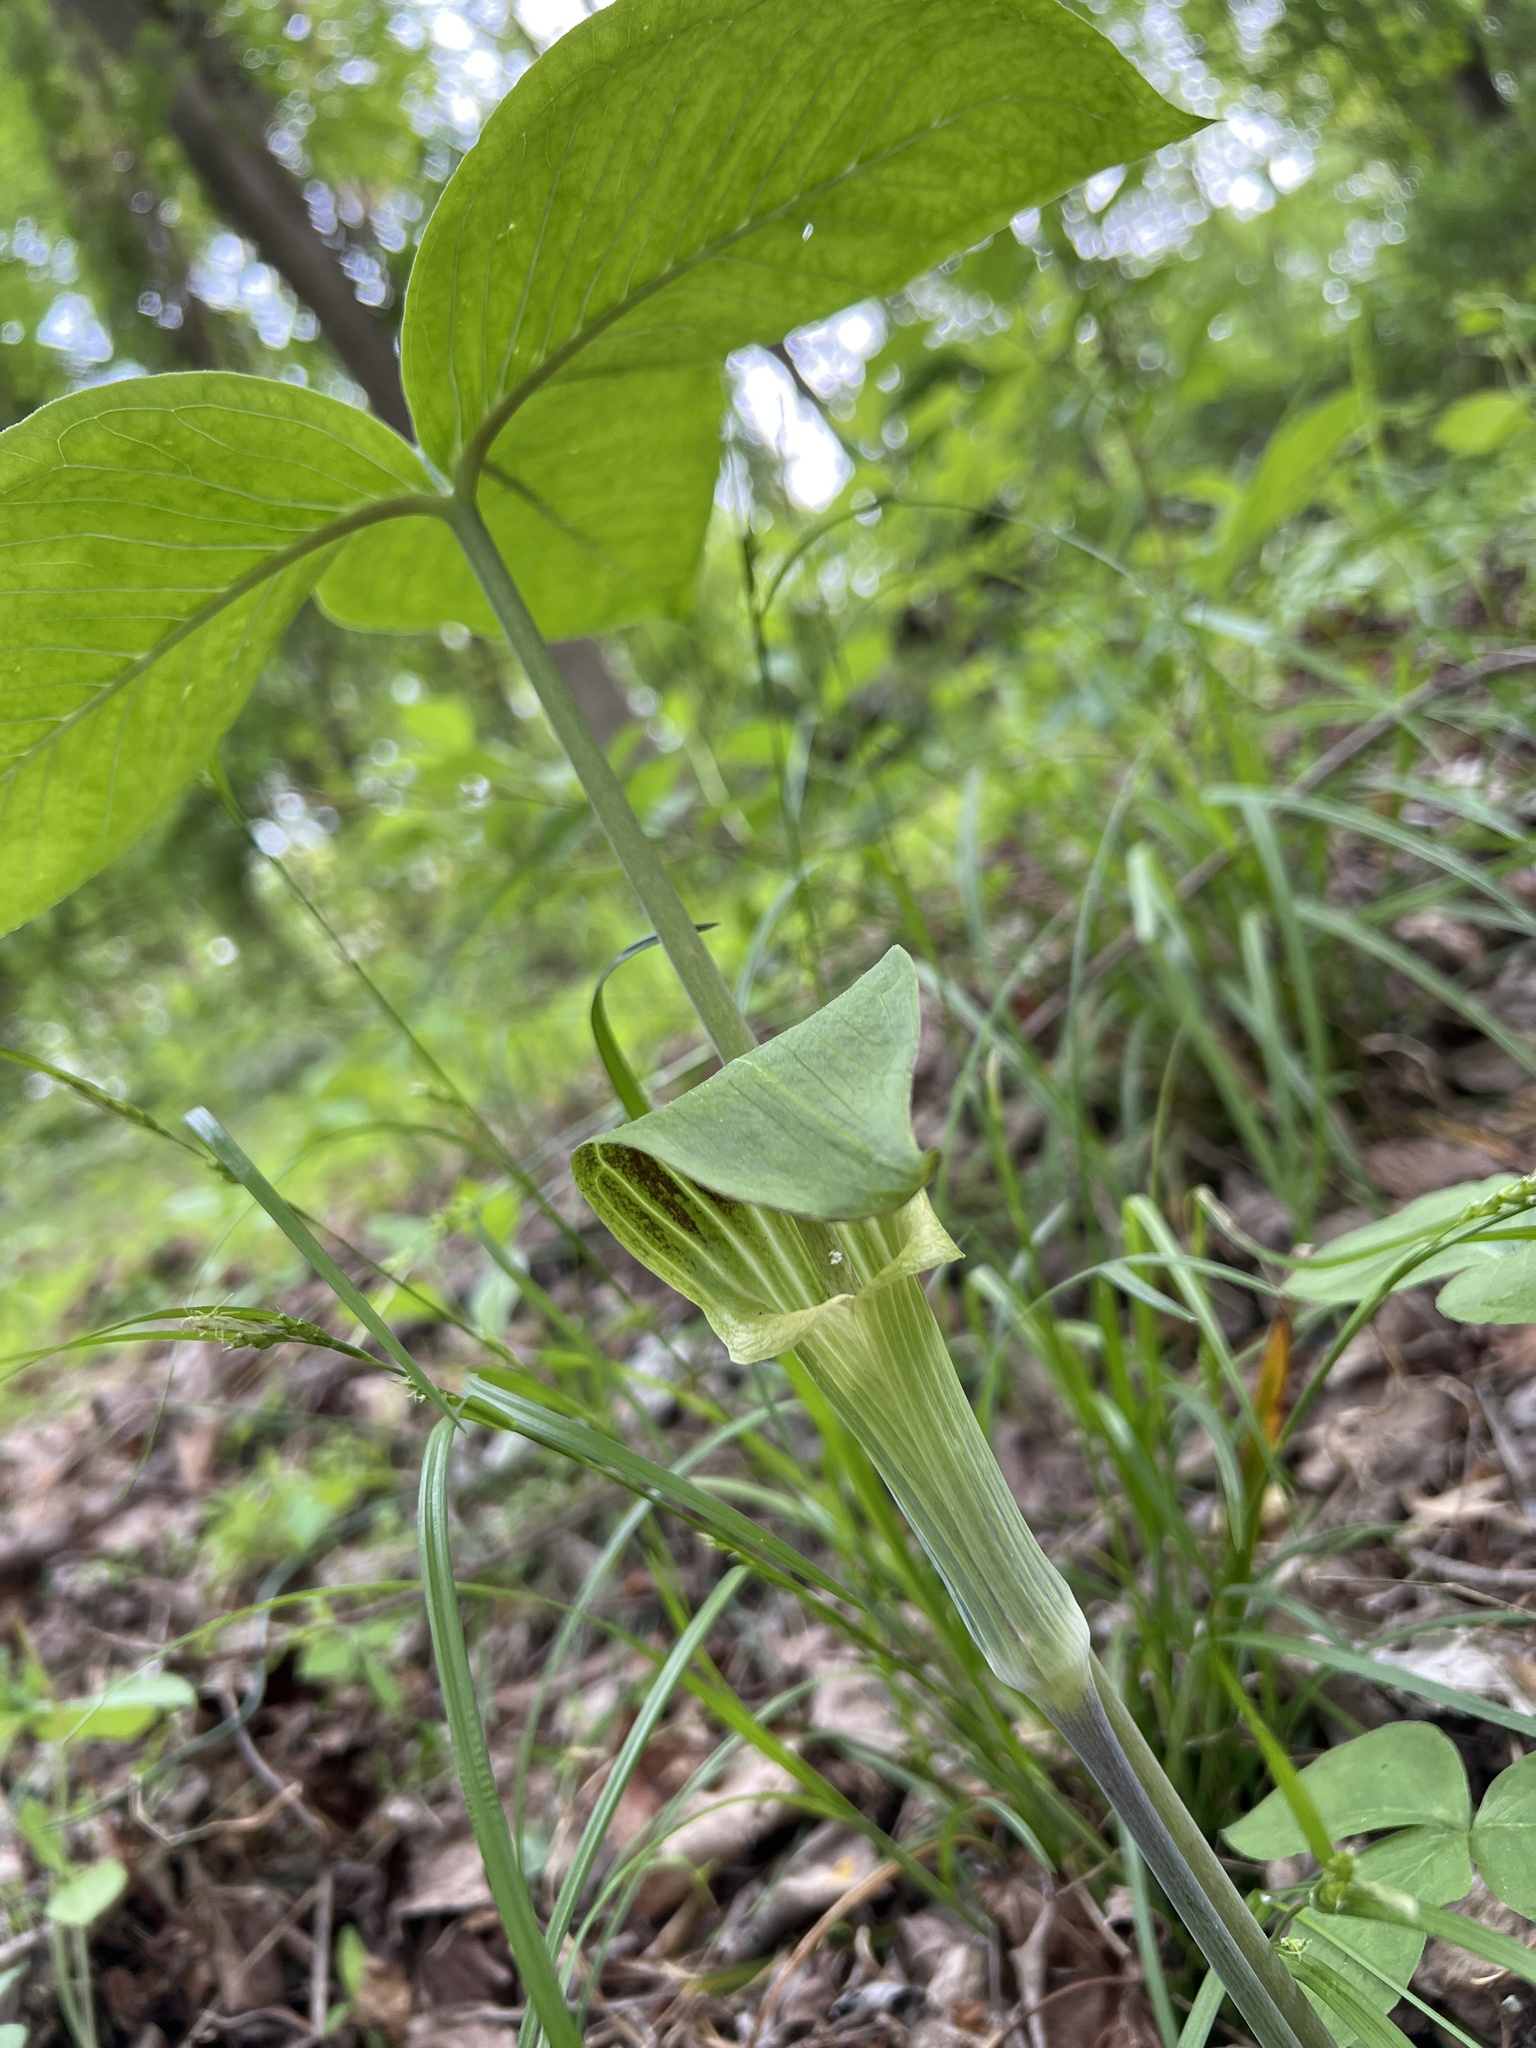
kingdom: Plantae
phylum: Tracheophyta
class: Liliopsida
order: Alismatales
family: Araceae
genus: Arisaema
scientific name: Arisaema triphyllum
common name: Jack-in-the-pulpit
